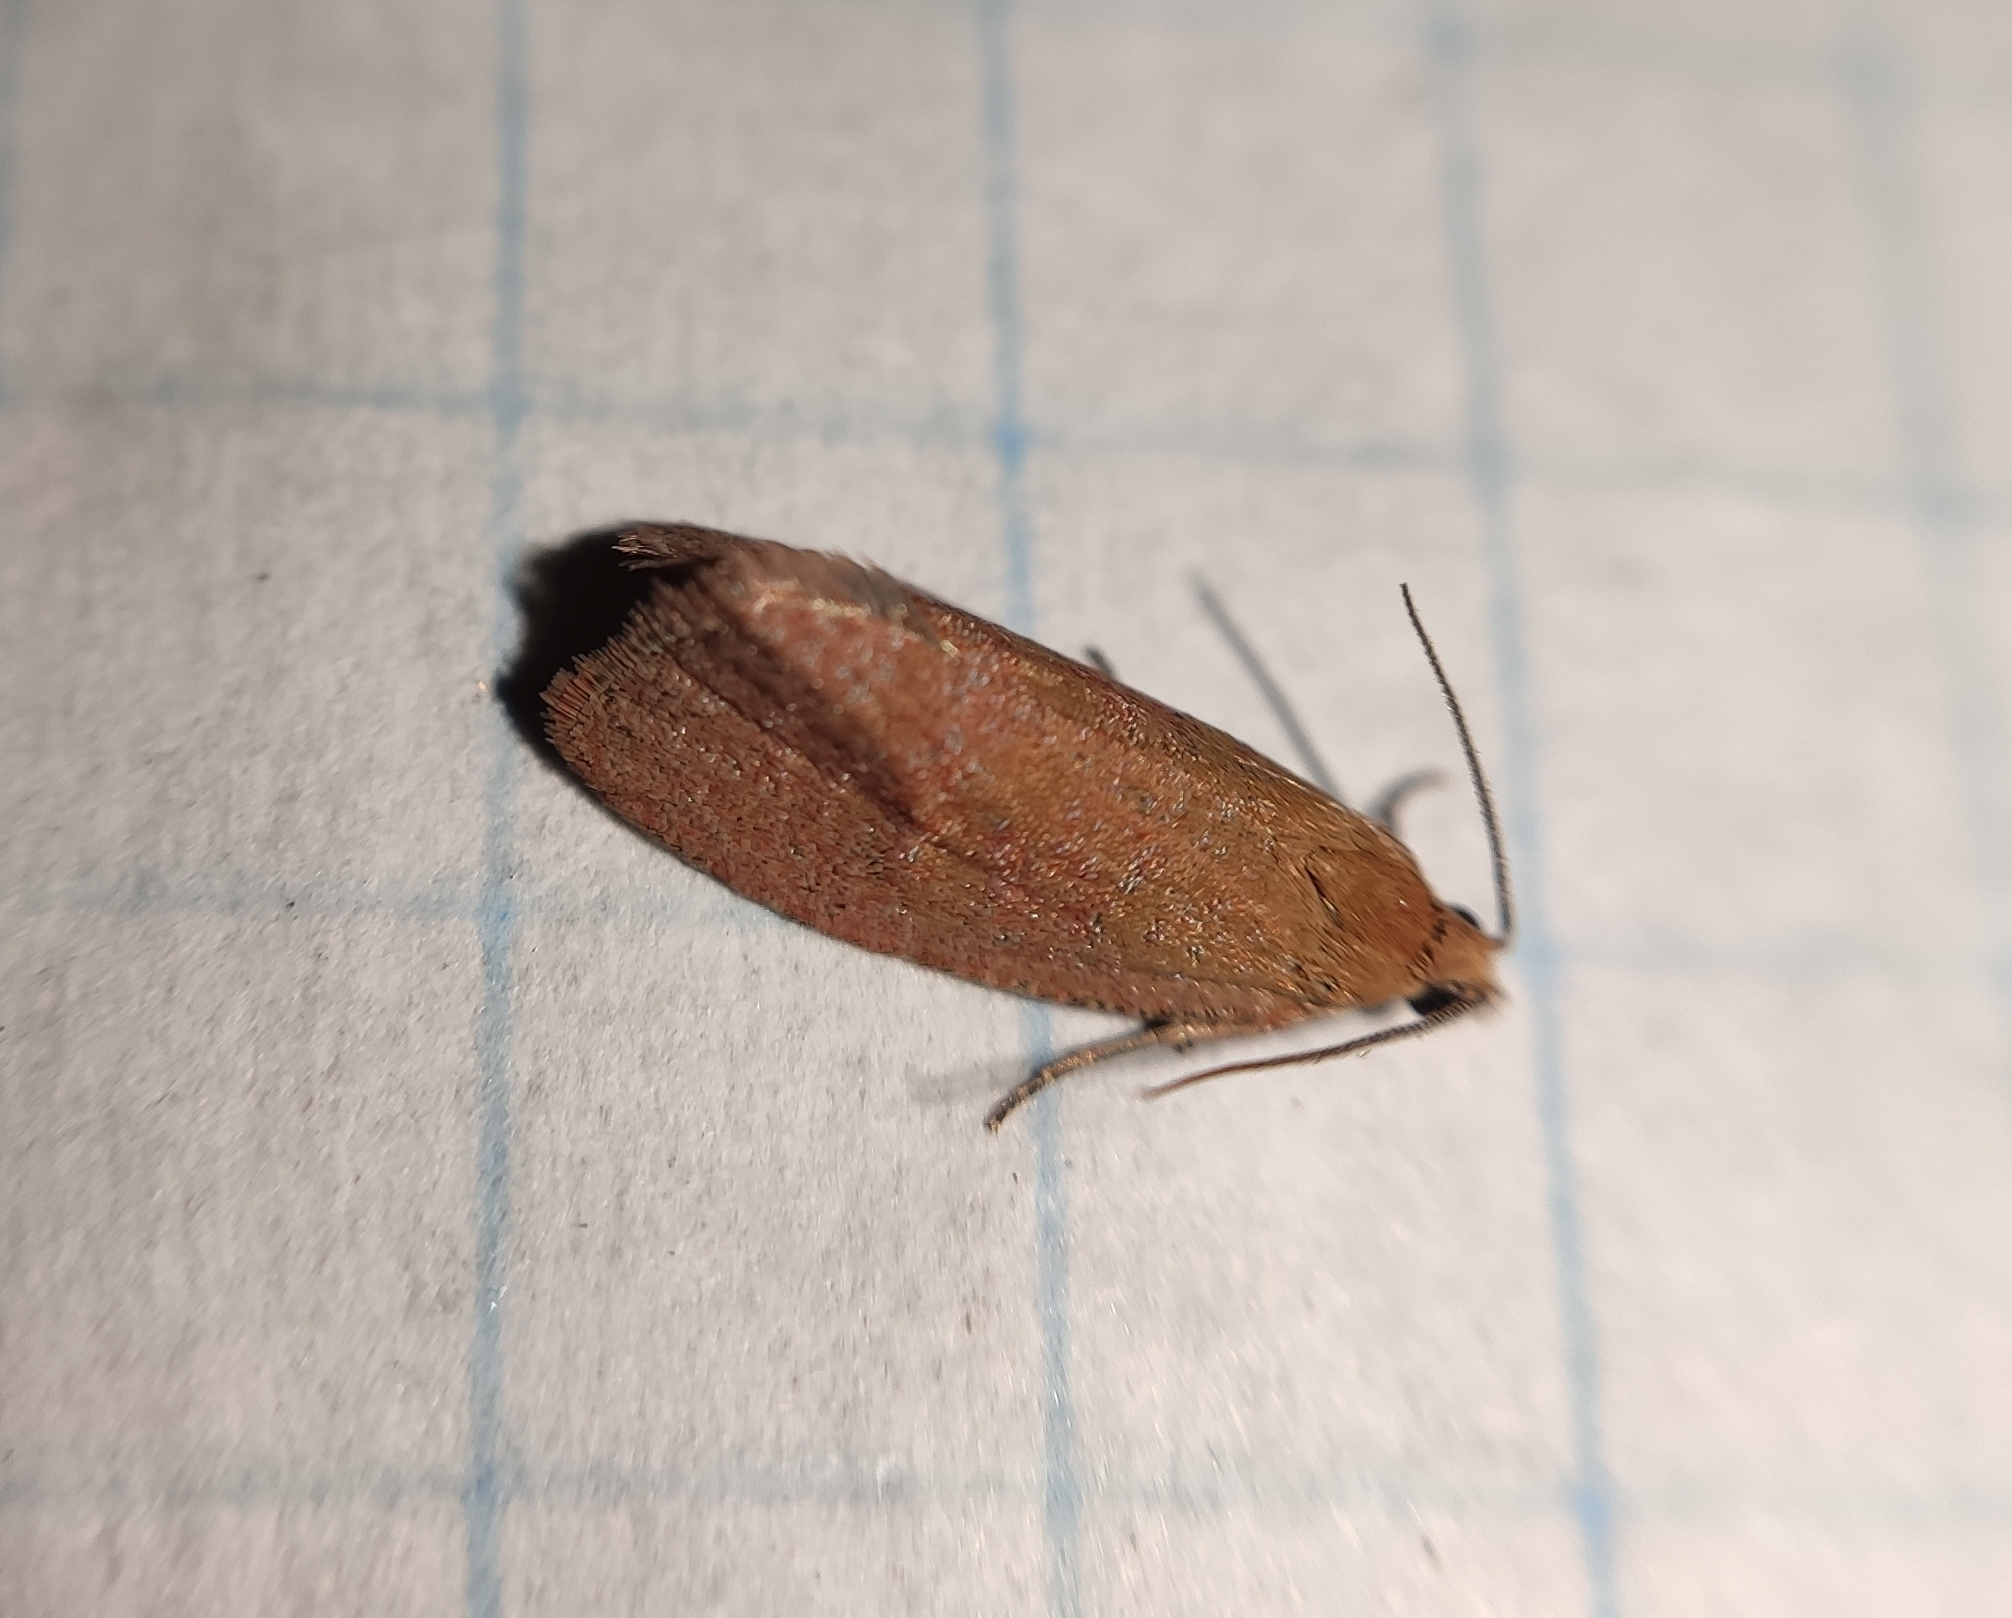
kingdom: Animalia
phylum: Arthropoda
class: Insecta
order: Lepidoptera
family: Tortricidae
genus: Celypha
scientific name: Celypha rufana
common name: Lakes marble
